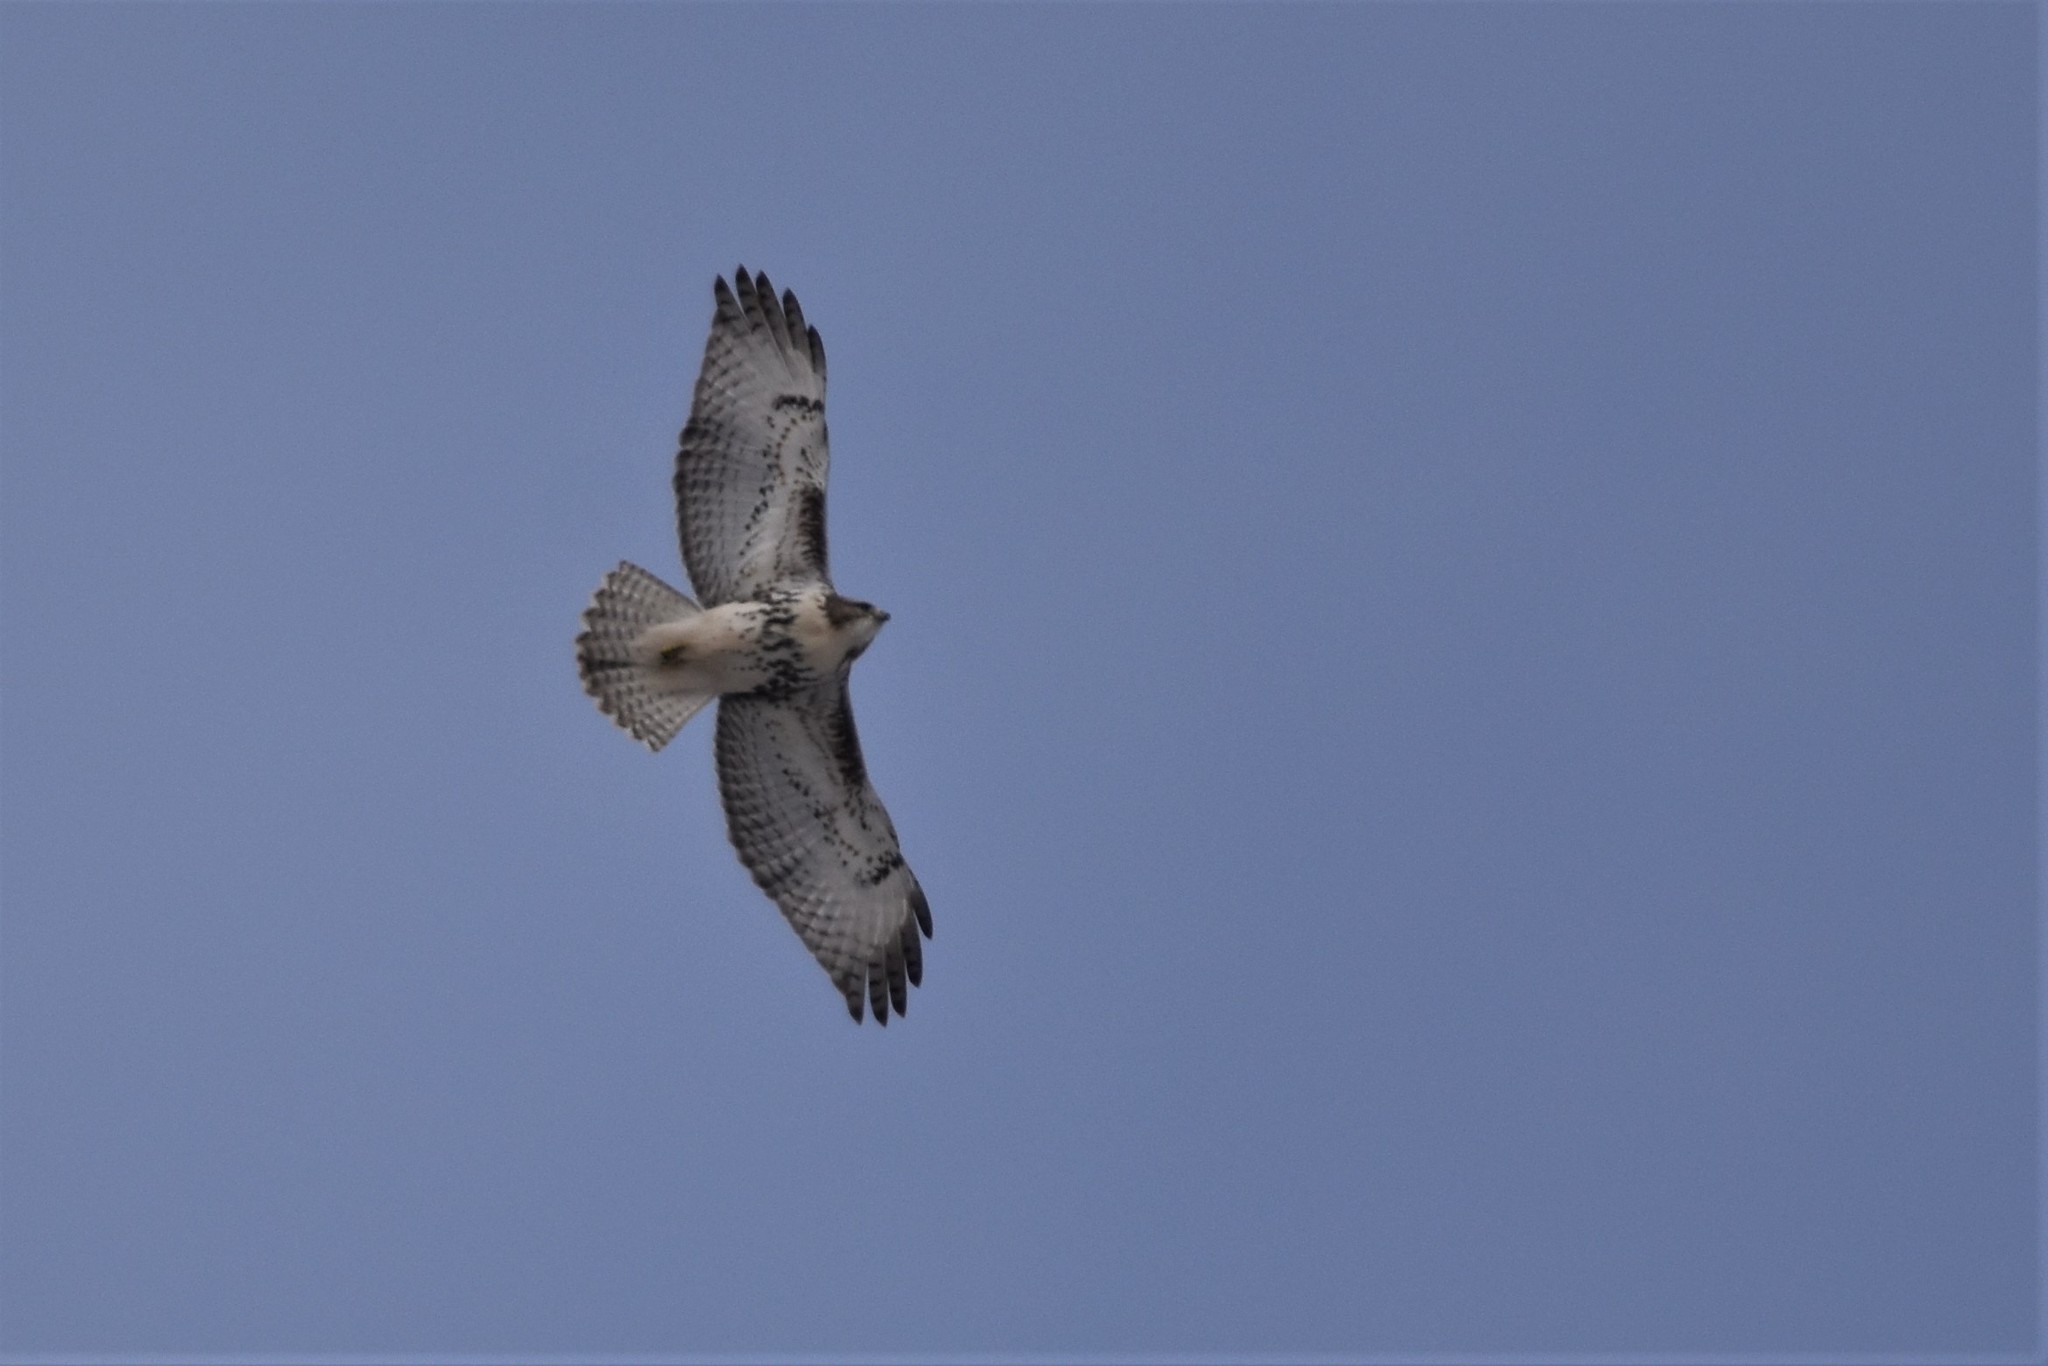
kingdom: Animalia
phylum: Chordata
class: Aves
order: Accipitriformes
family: Accipitridae
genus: Buteo
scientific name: Buteo jamaicensis
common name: Red-tailed hawk
